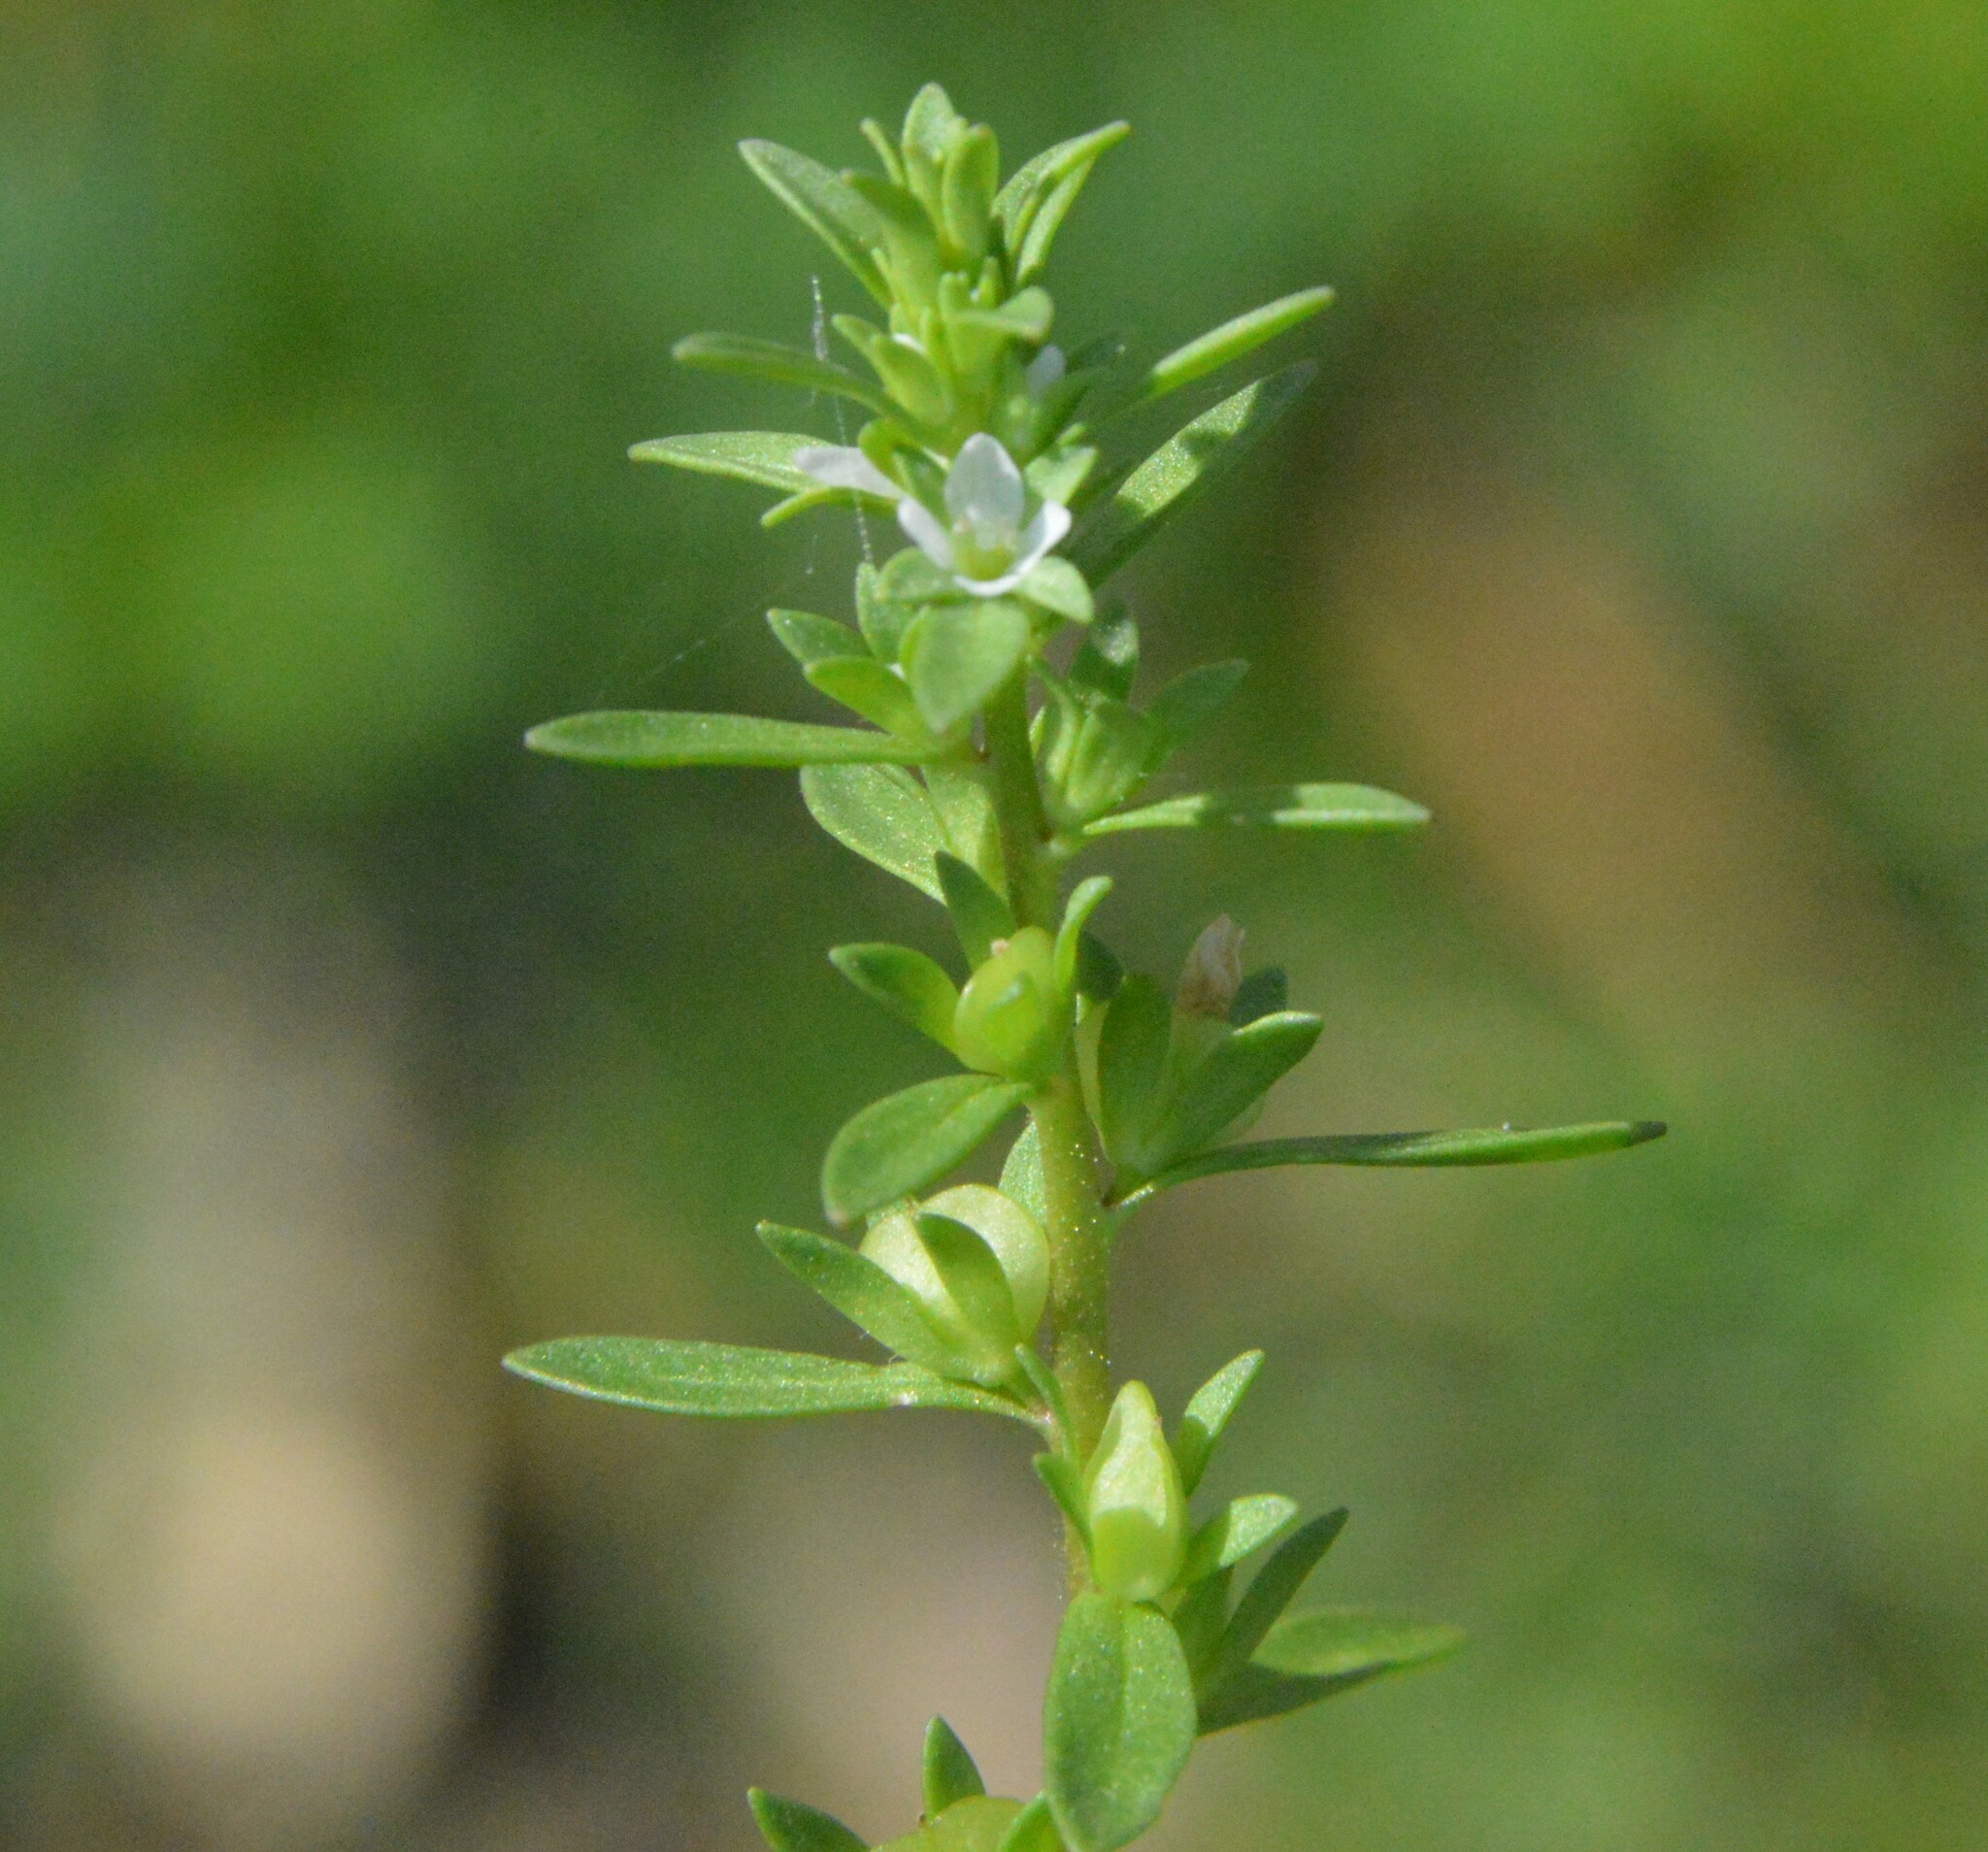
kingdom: Plantae
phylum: Tracheophyta
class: Magnoliopsida
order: Lamiales
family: Plantaginaceae
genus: Veronica
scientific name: Veronica peregrina
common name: Neckweed
